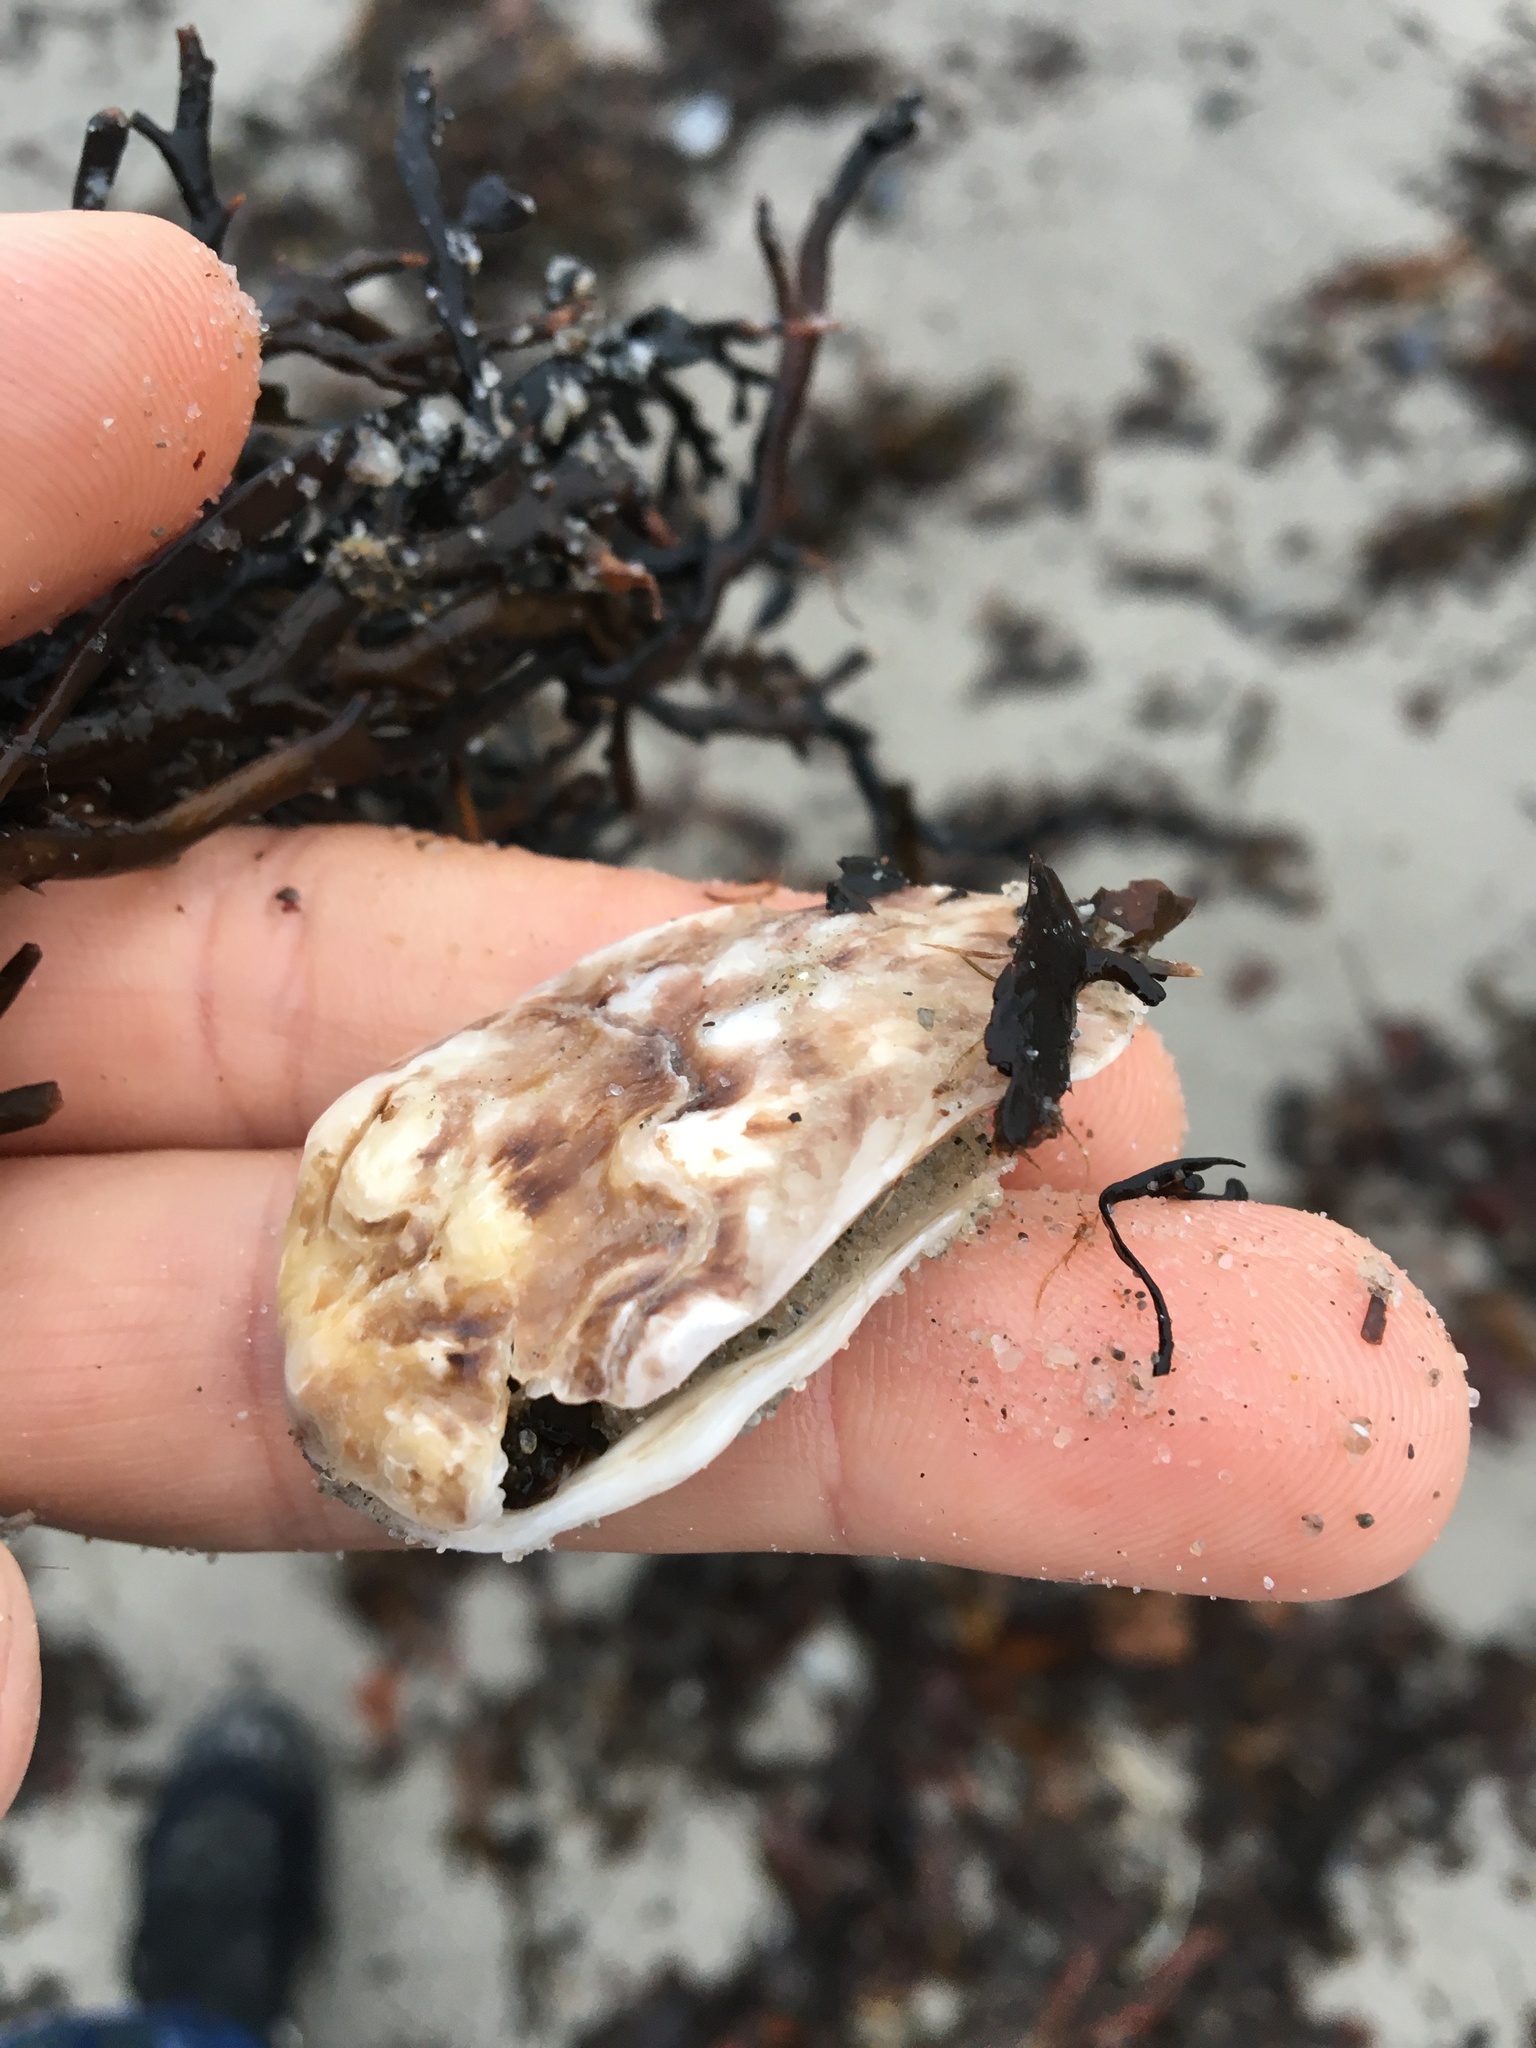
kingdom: Animalia
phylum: Mollusca
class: Bivalvia
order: Ostreida
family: Ostreidae
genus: Magallana
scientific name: Magallana gigas
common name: Pacific oyster
